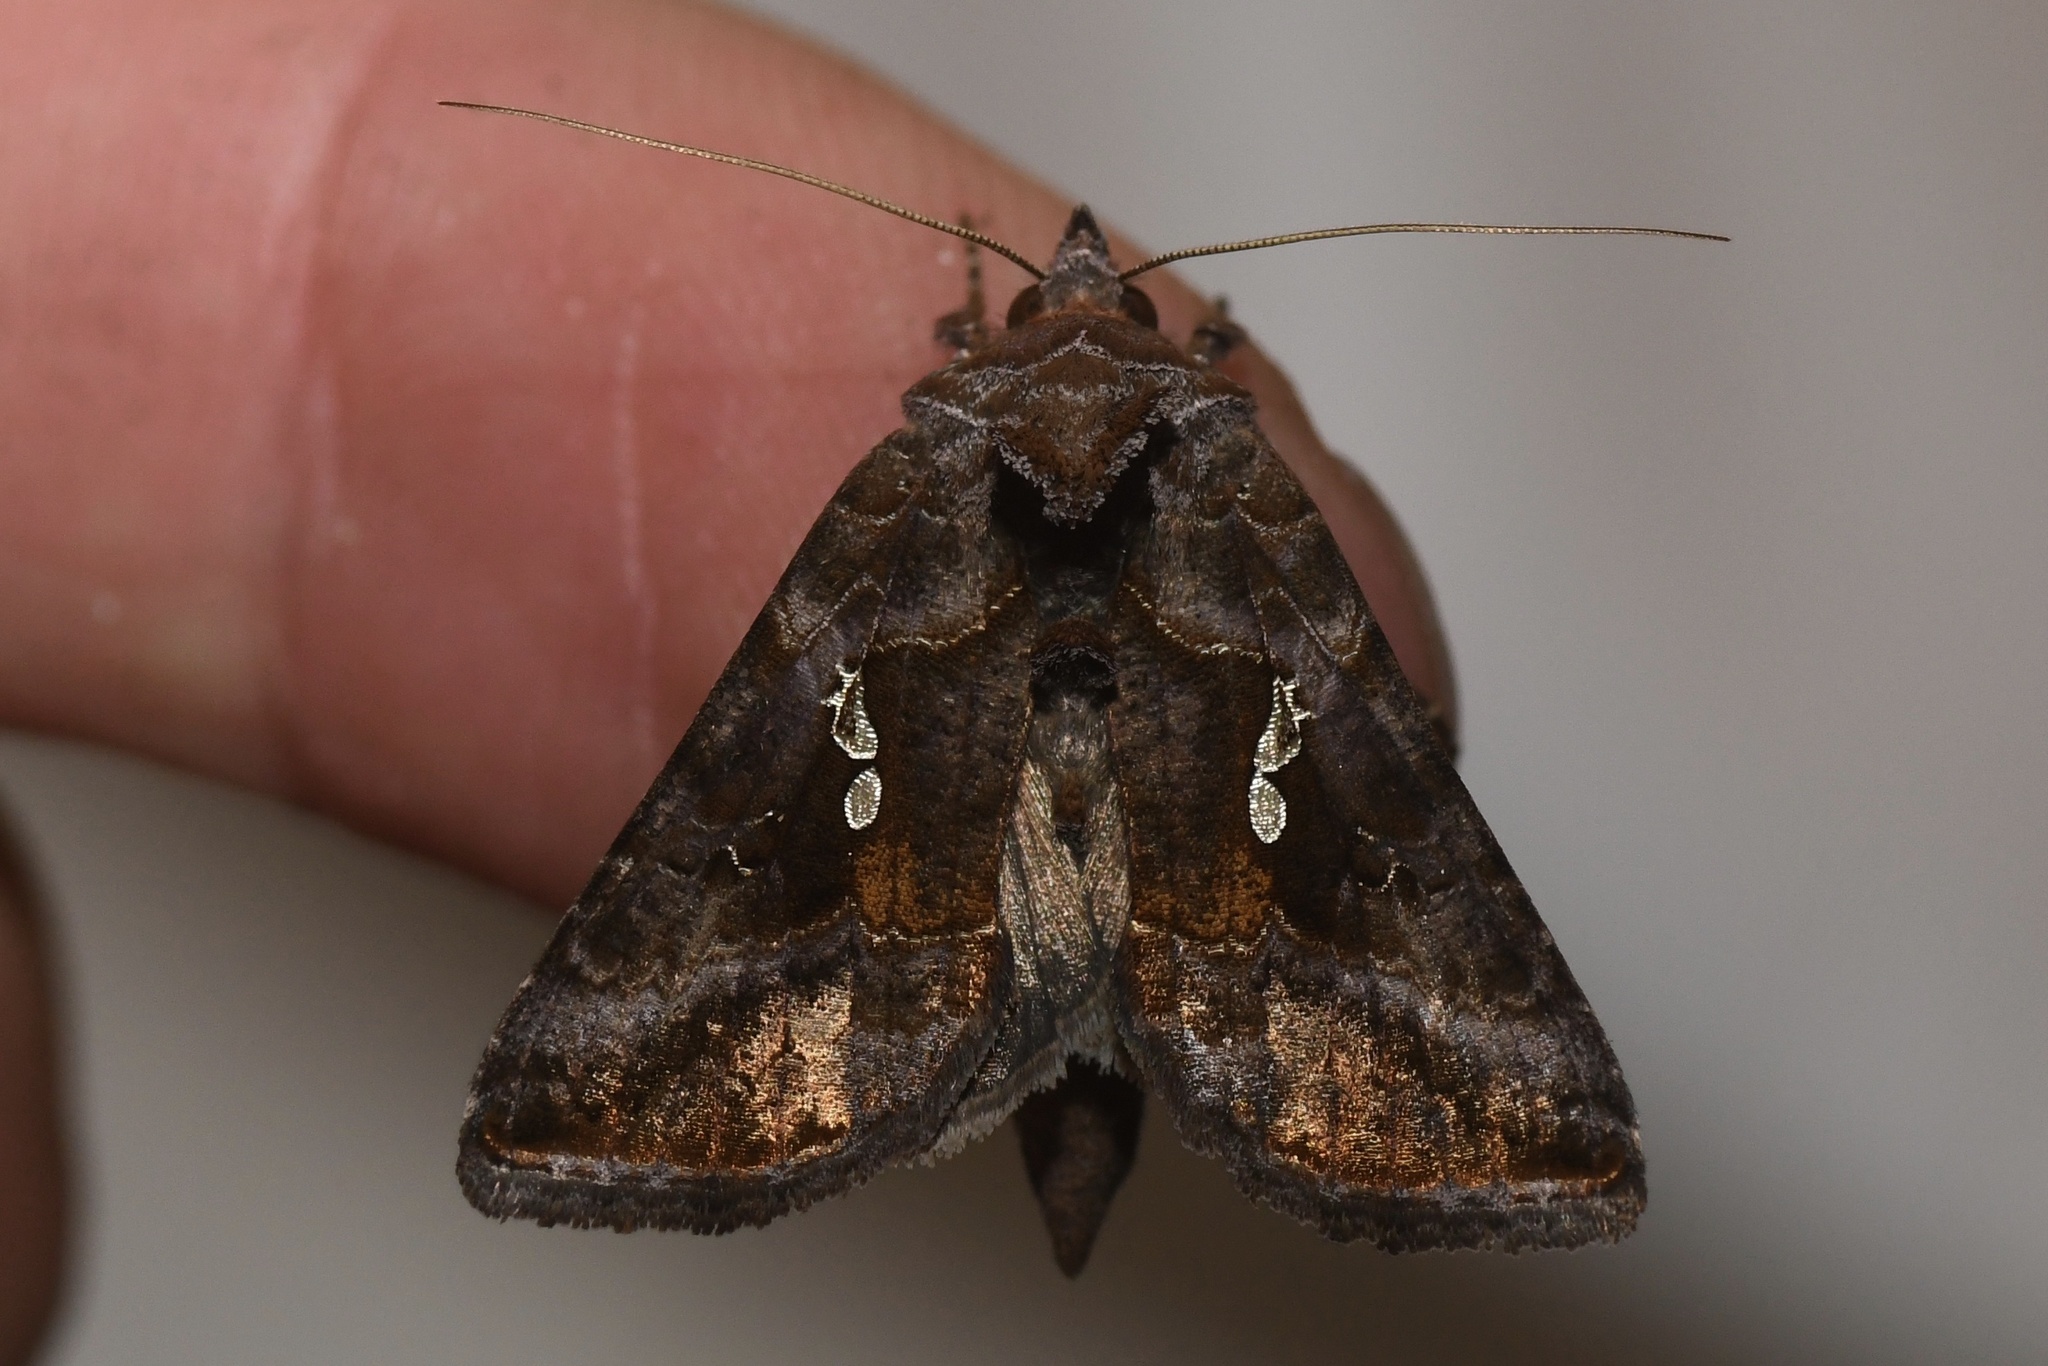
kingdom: Animalia
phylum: Arthropoda
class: Insecta
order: Lepidoptera
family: Noctuidae
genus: Autographa
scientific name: Autographa precationis
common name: Common looper moth
